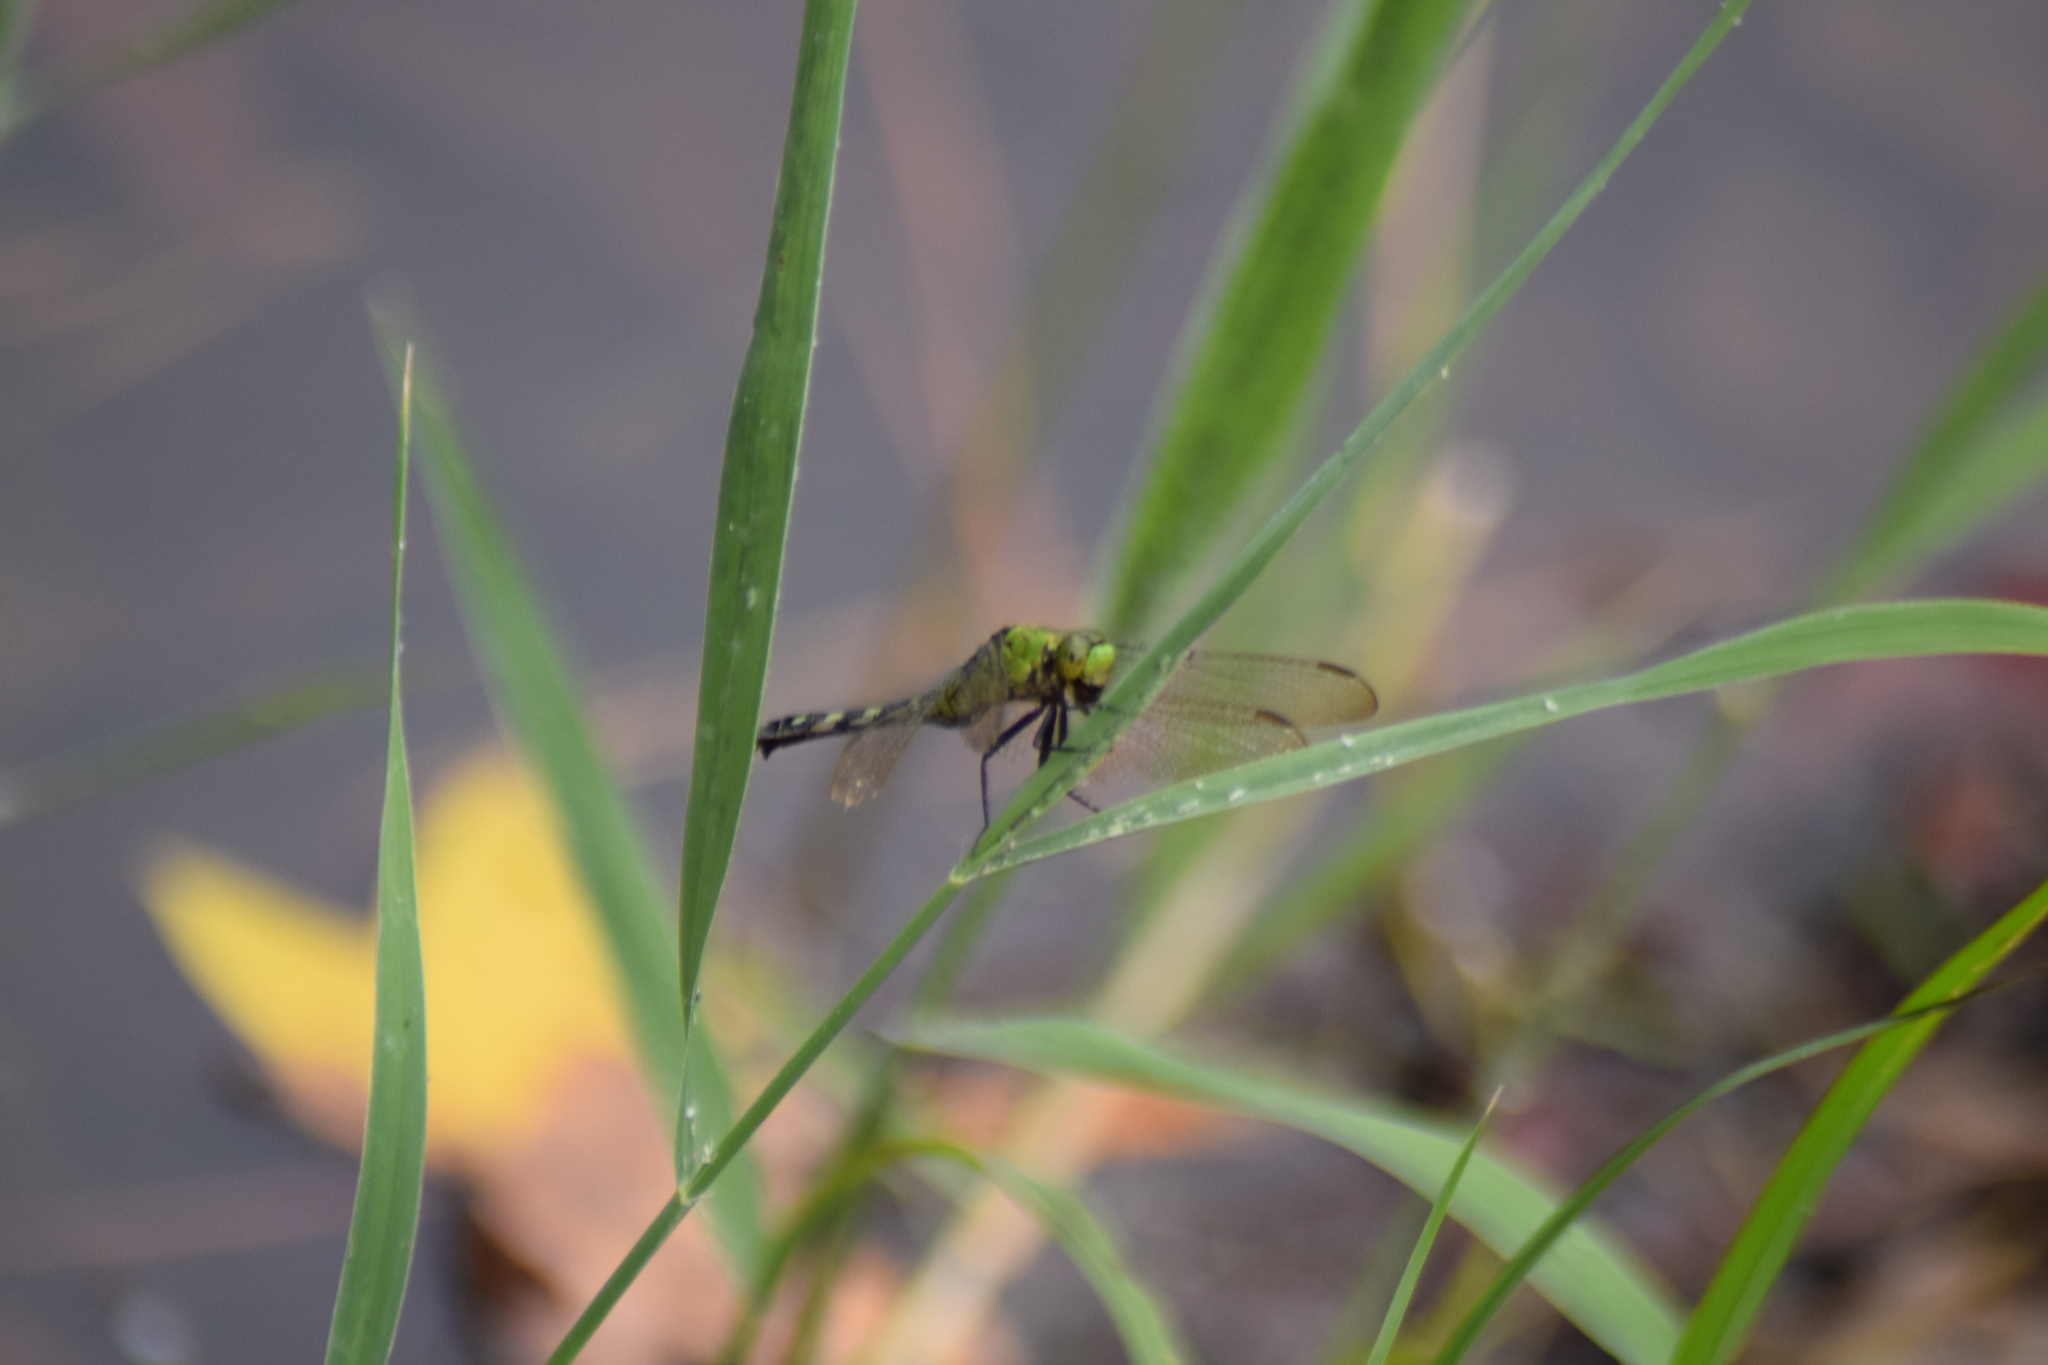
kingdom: Animalia
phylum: Arthropoda
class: Insecta
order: Odonata
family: Libellulidae
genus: Erythemis
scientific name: Erythemis simplicicollis
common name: Eastern pondhawk
